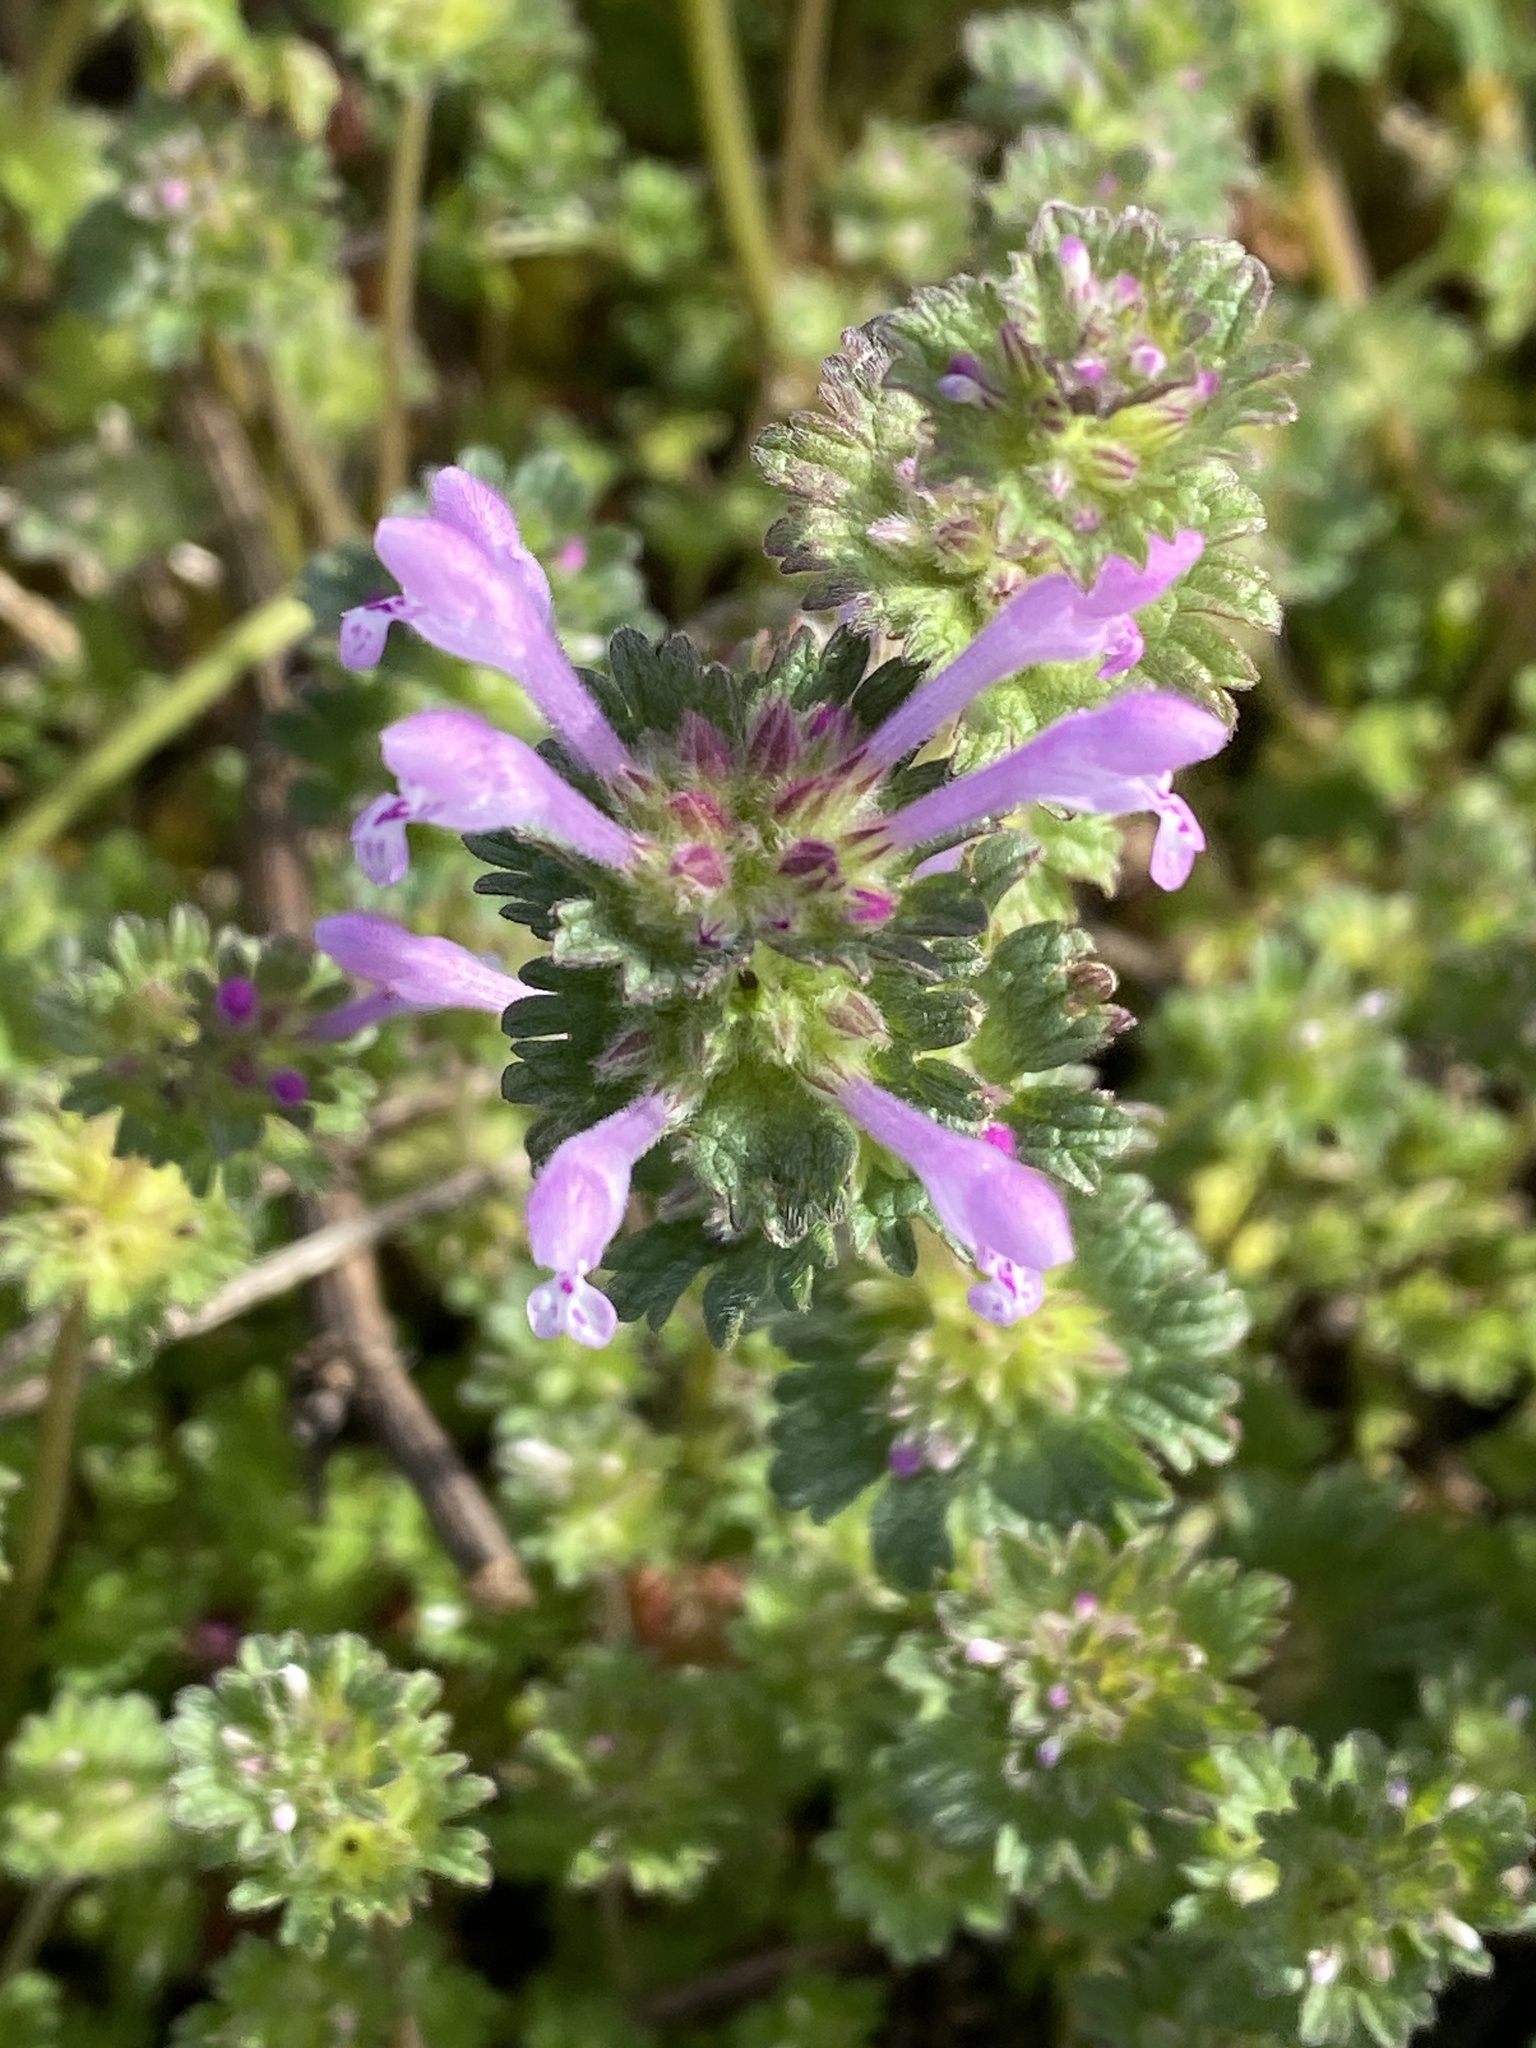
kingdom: Plantae
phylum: Tracheophyta
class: Magnoliopsida
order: Lamiales
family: Lamiaceae
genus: Lamium
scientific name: Lamium amplexicaule
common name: Henbit dead-nettle
